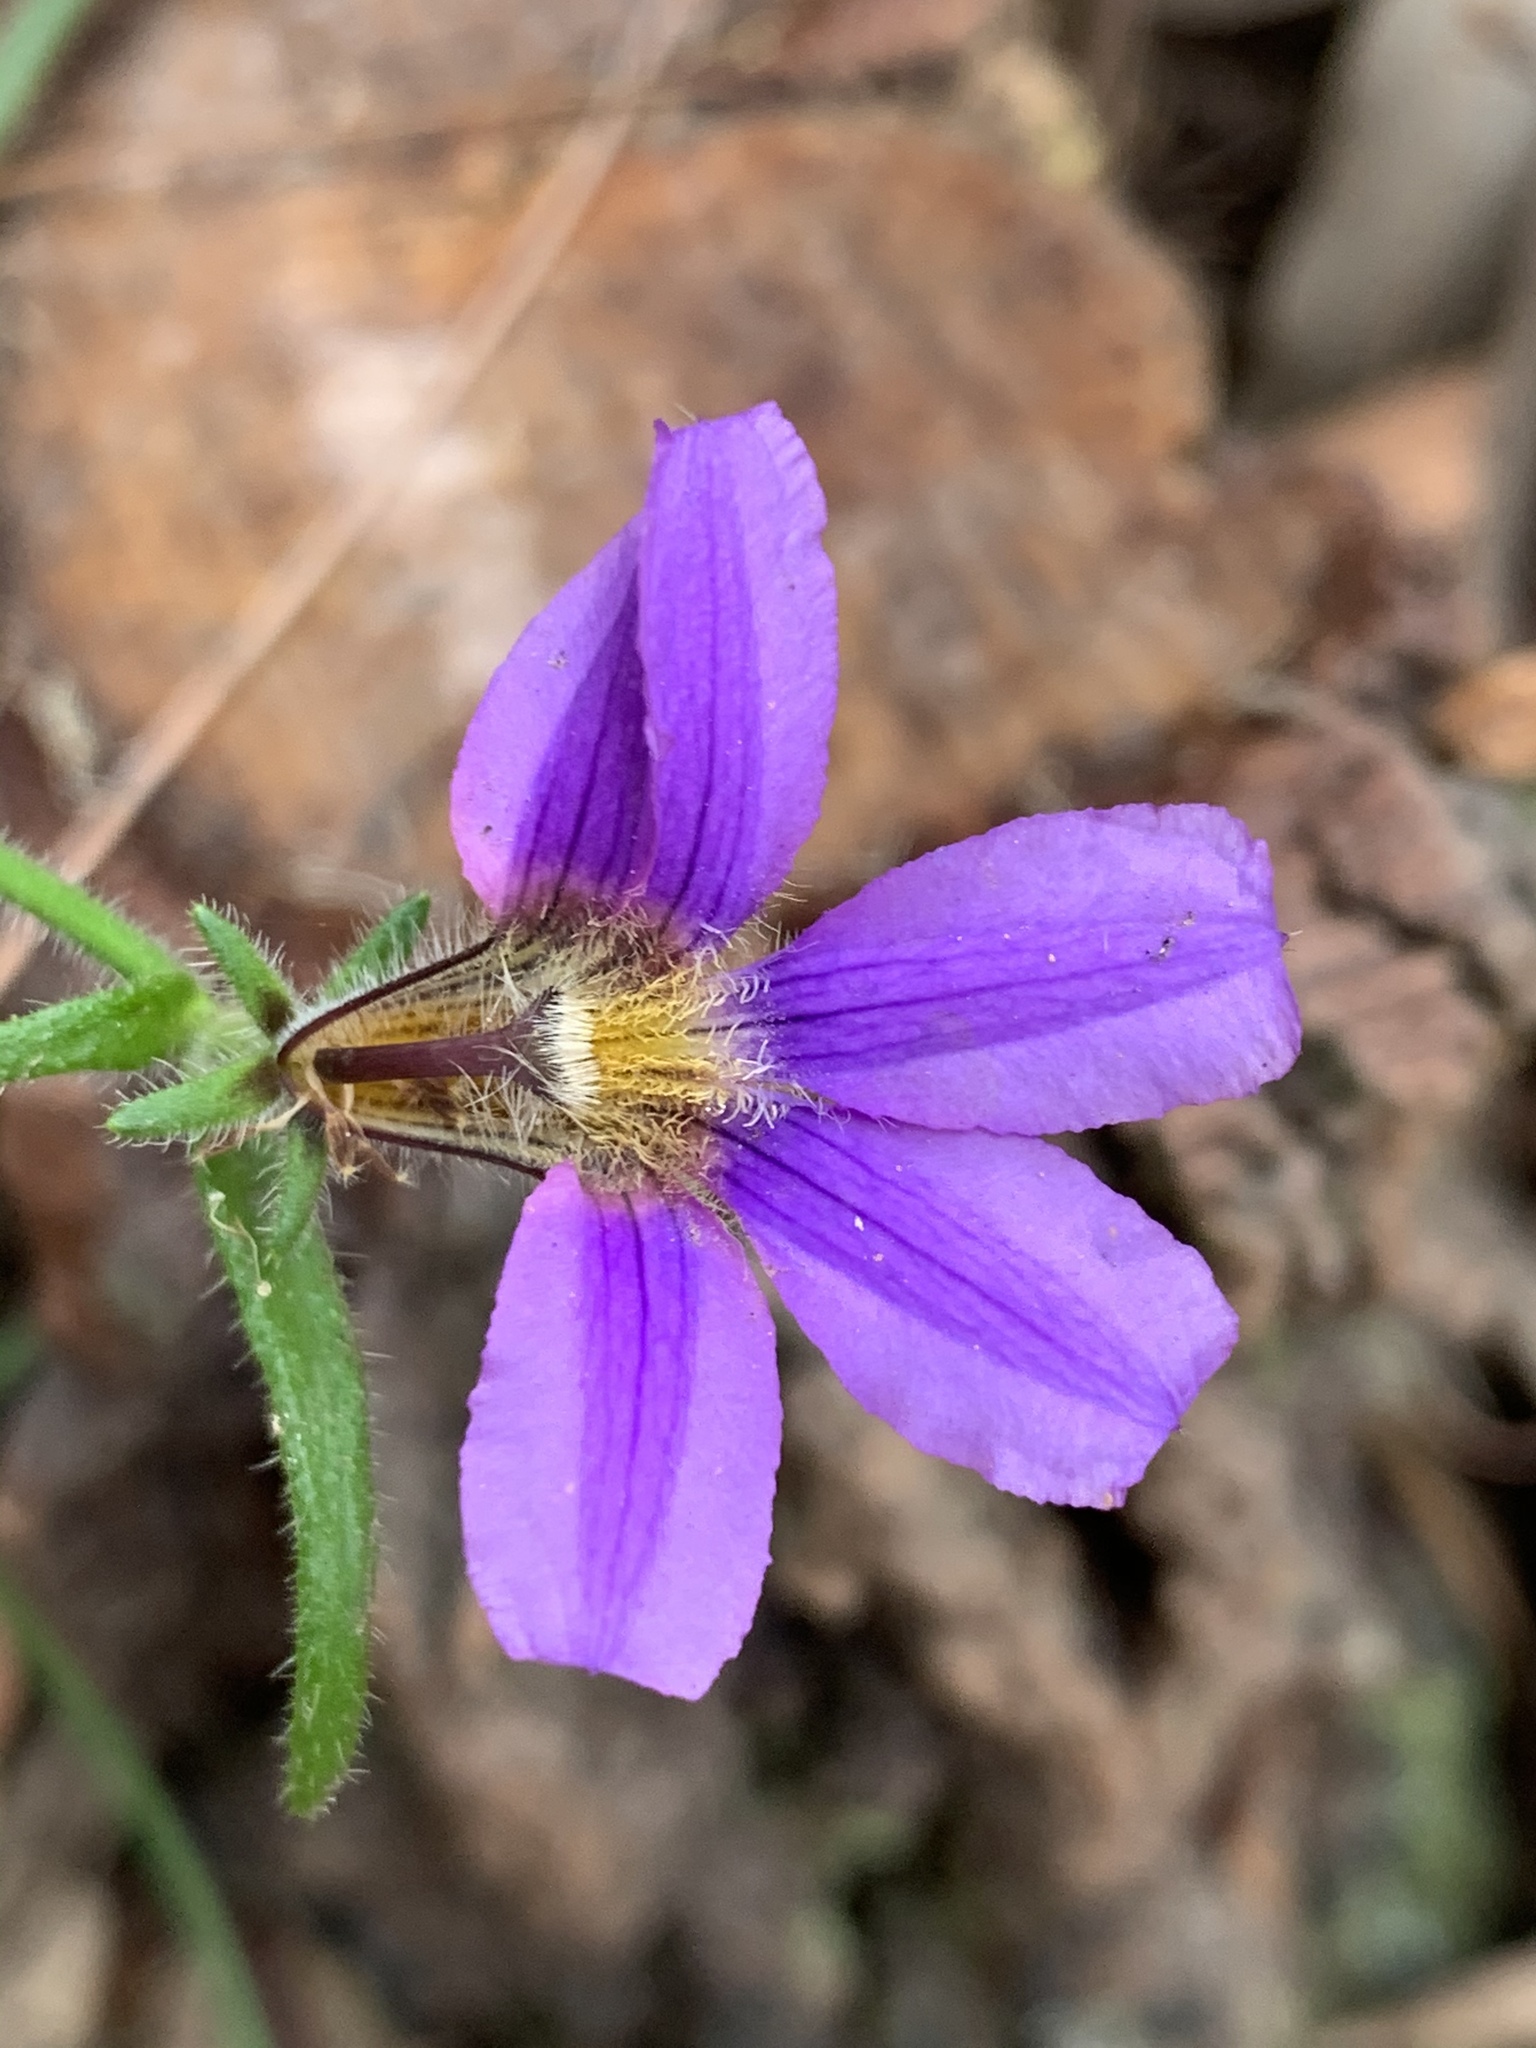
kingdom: Plantae
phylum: Tracheophyta
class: Magnoliopsida
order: Asterales
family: Goodeniaceae
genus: Scaevola
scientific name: Scaevola ramosissima
